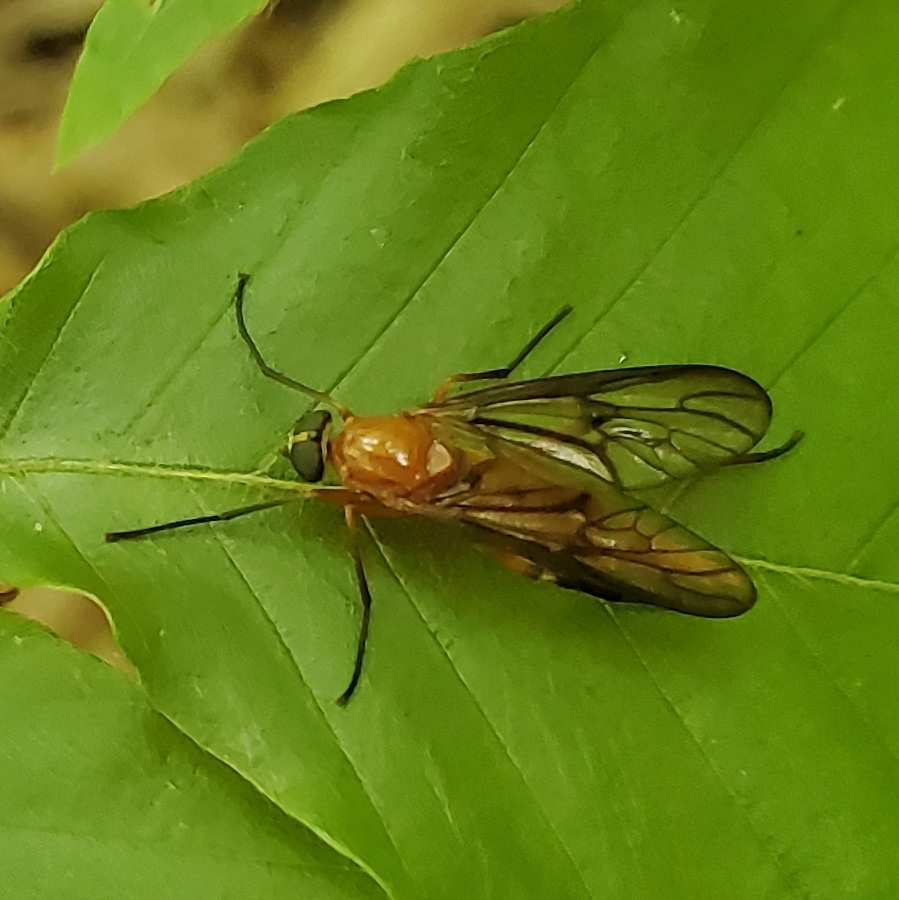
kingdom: Animalia
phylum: Arthropoda
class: Insecta
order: Diptera
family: Xylophagidae
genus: Dialysis
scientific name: Dialysis rufithorax
